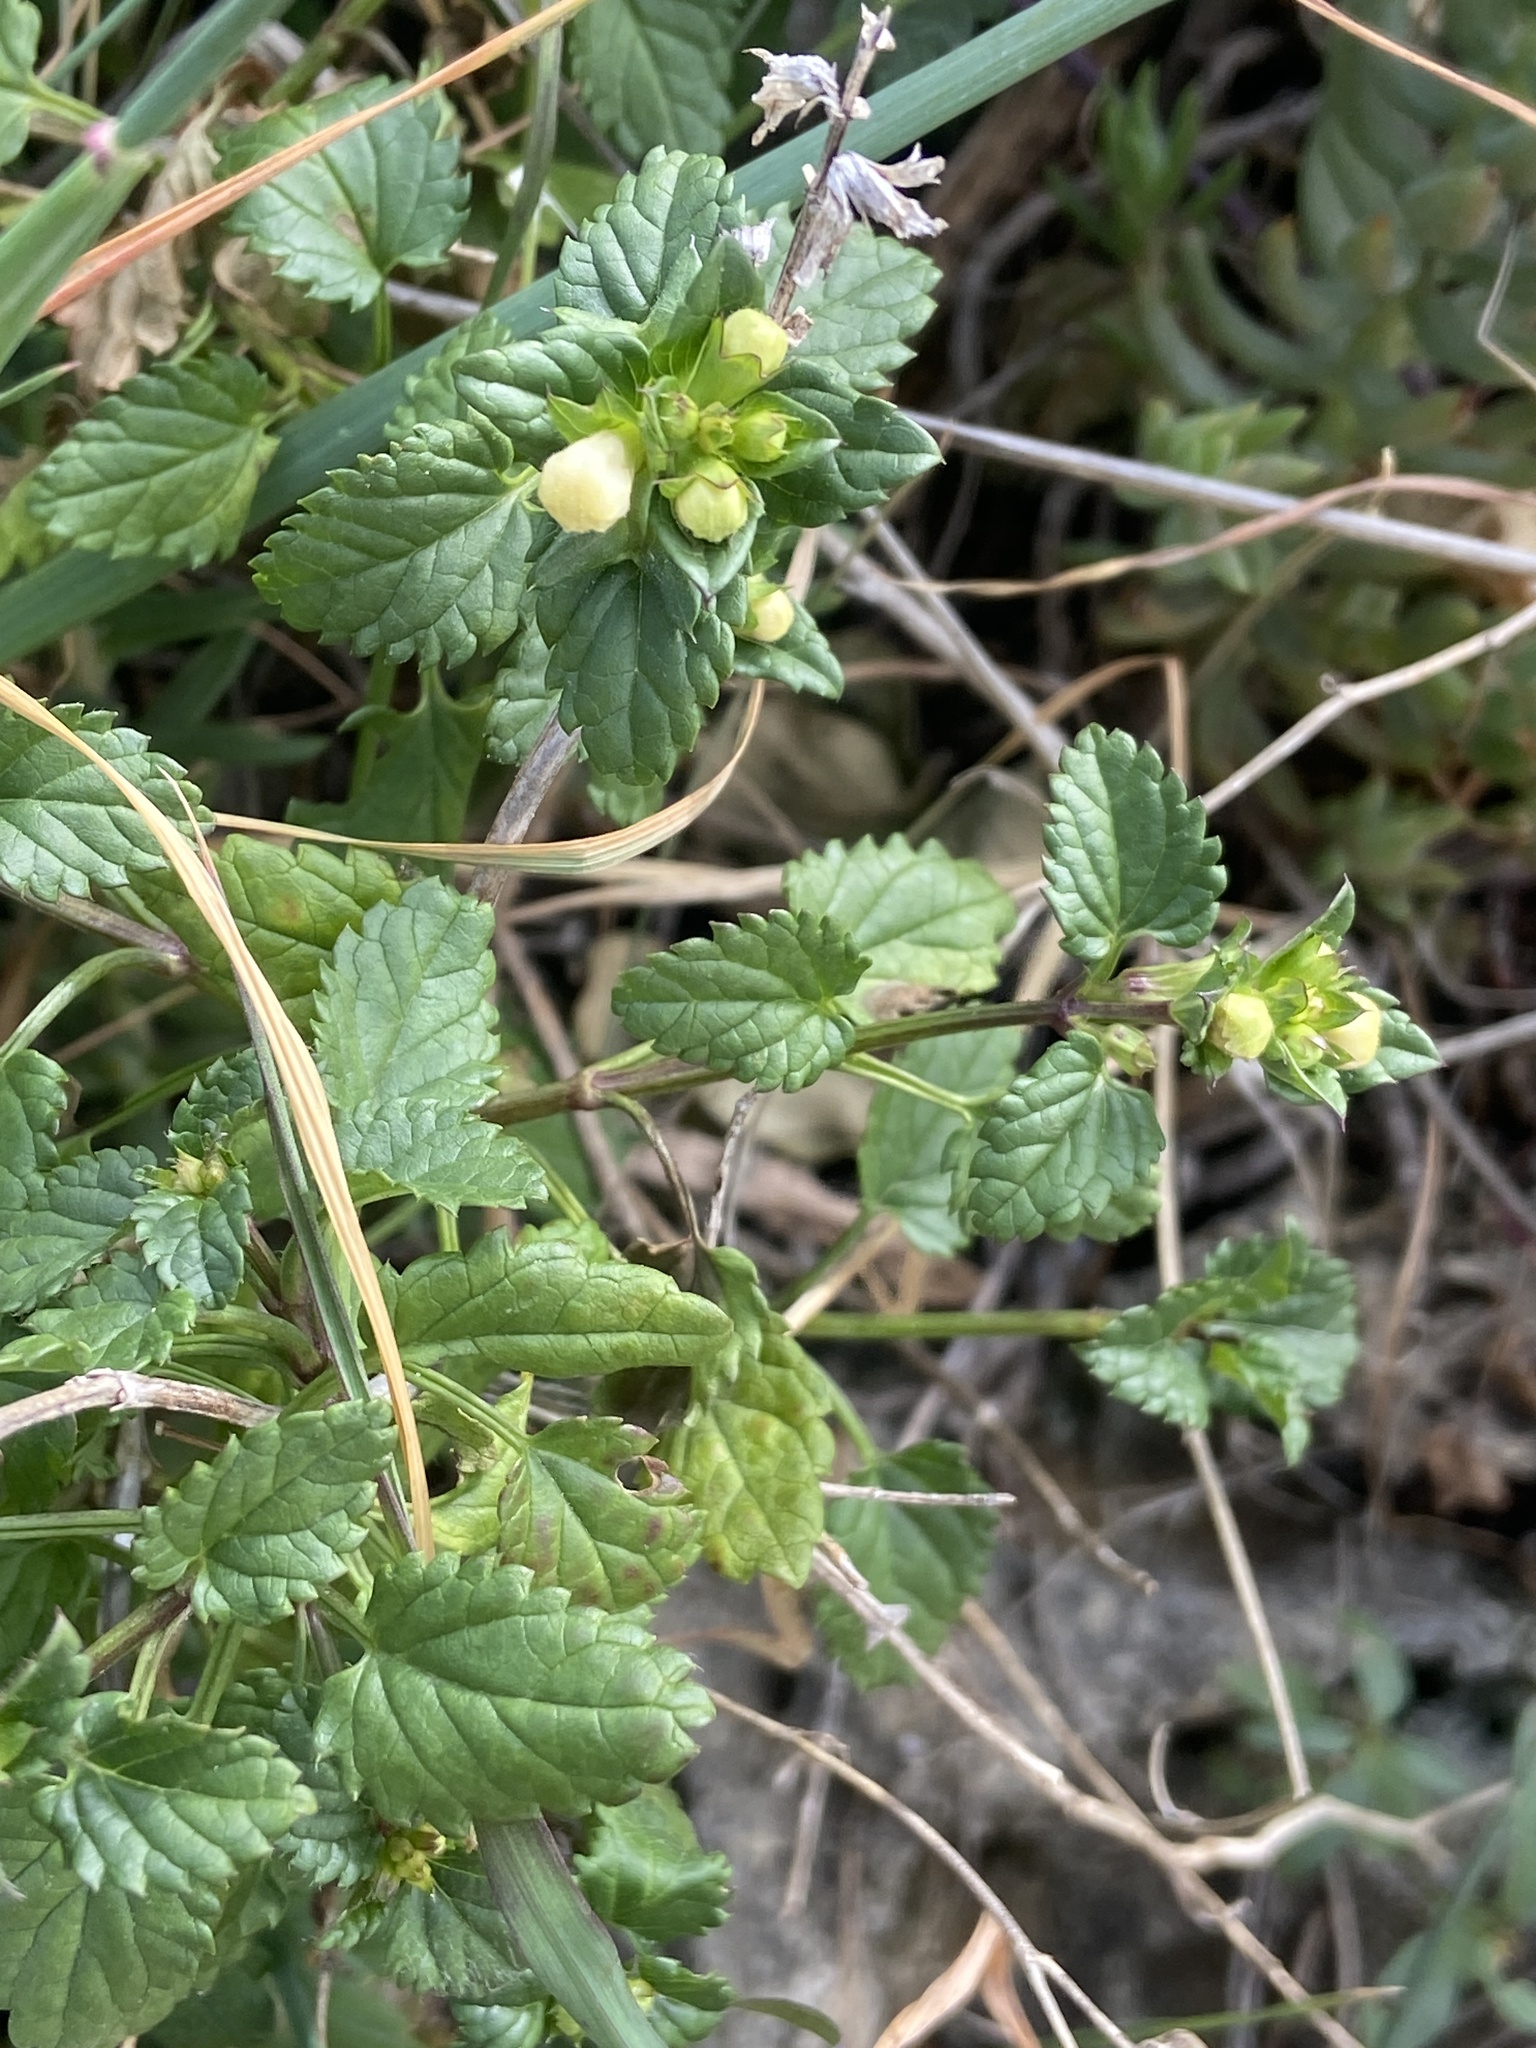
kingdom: Plantae
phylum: Tracheophyta
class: Magnoliopsida
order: Lamiales
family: Lamiaceae
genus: Prasium
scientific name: Prasium majus
